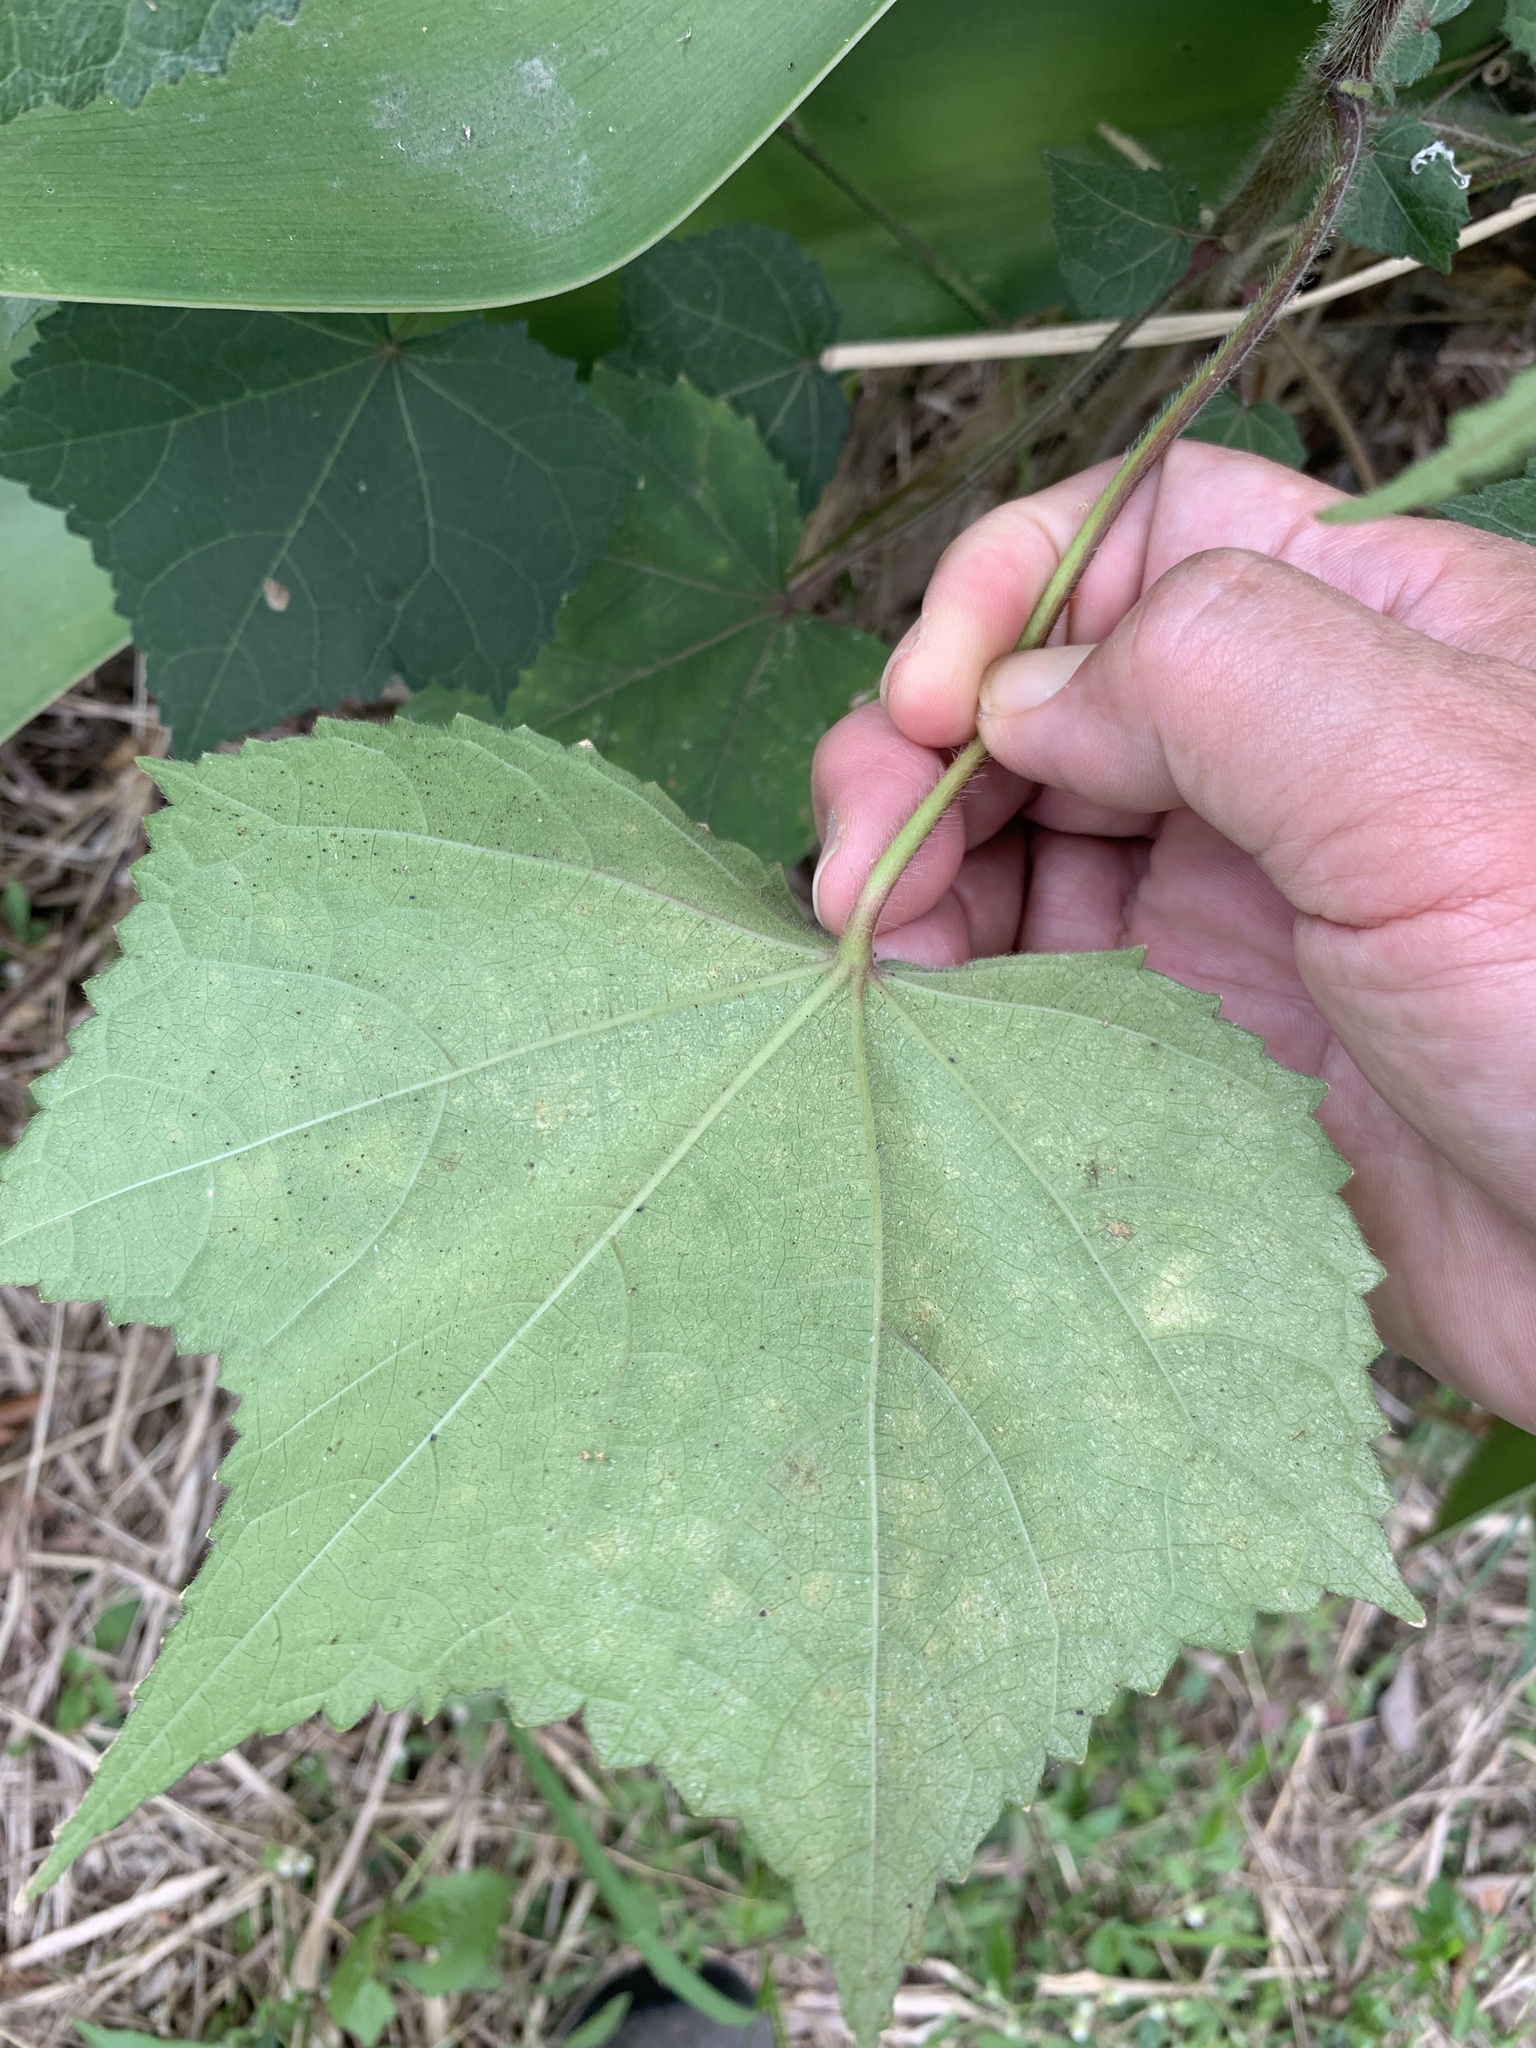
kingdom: Plantae
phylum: Tracheophyta
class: Magnoliopsida
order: Malvales
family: Malvaceae
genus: Abelmoschus
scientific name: Abelmoschus moschatus
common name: Musk okra
